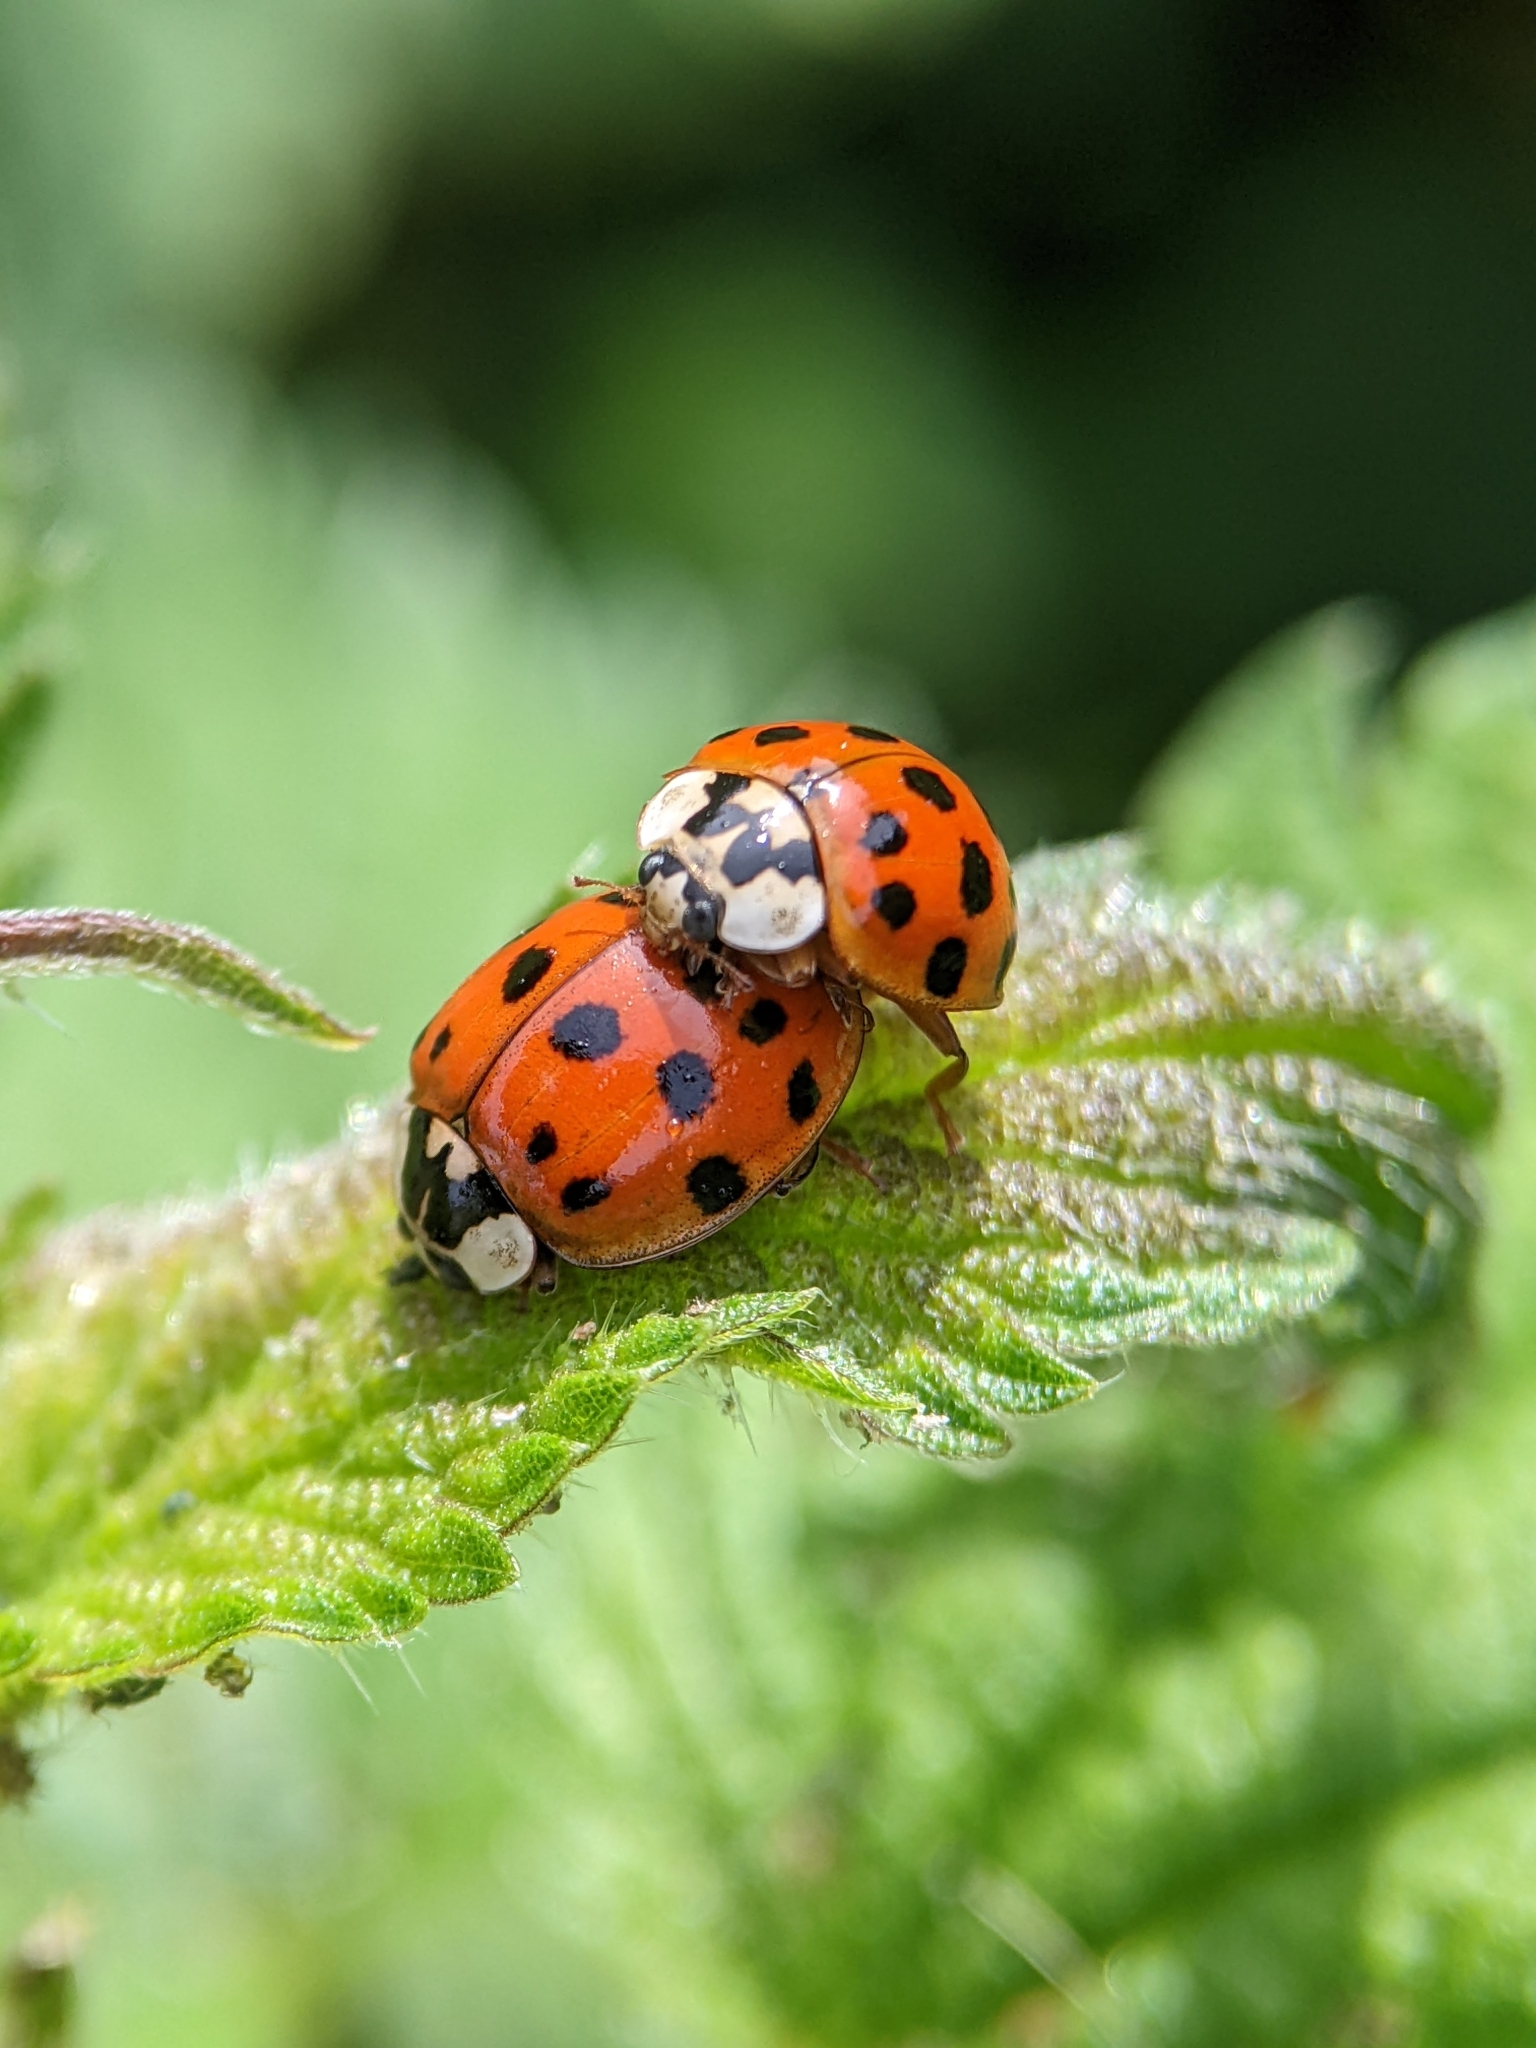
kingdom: Animalia
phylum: Arthropoda
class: Insecta
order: Coleoptera
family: Coccinellidae
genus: Harmonia
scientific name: Harmonia axyridis
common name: Harlequin ladybird
